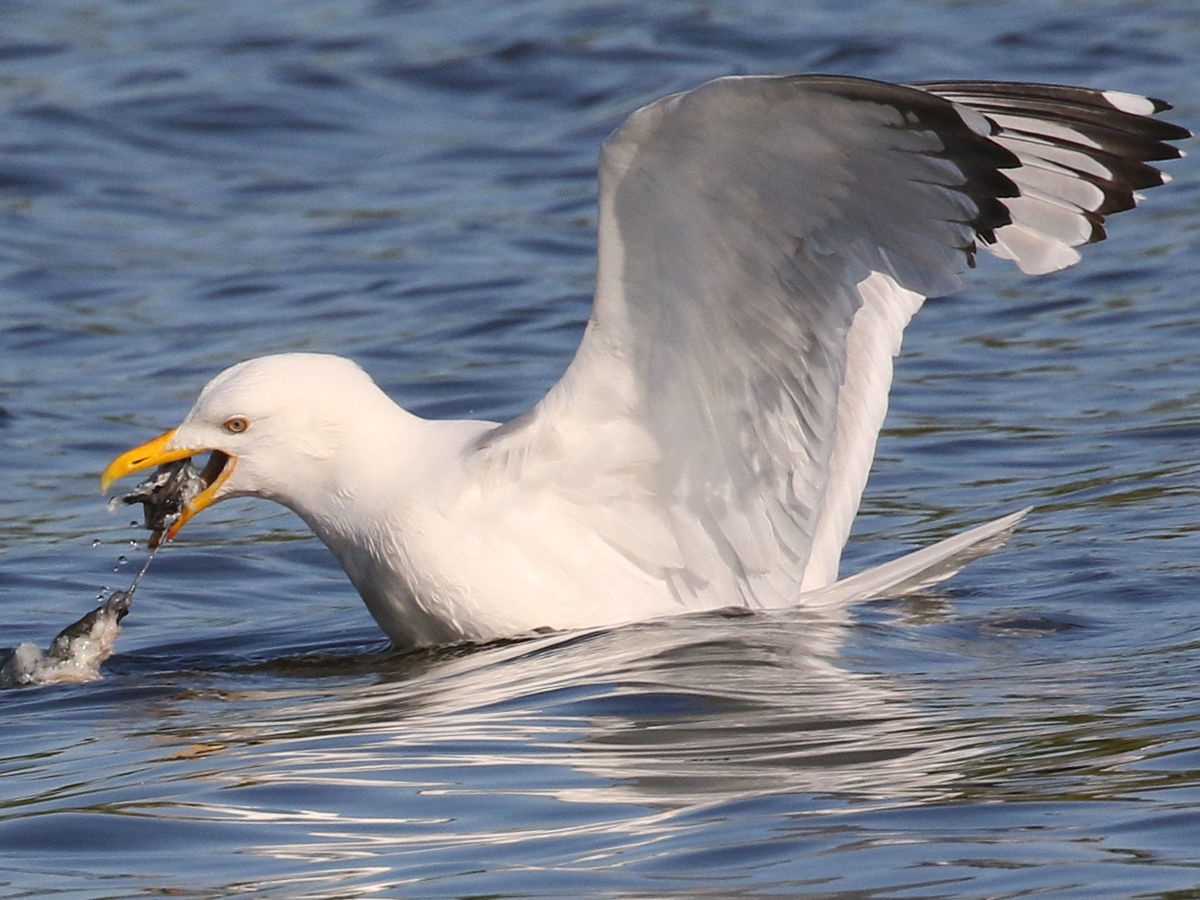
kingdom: Animalia
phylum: Chordata
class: Aves
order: Charadriiformes
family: Laridae
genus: Larus
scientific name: Larus argentatus
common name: Herring gull
